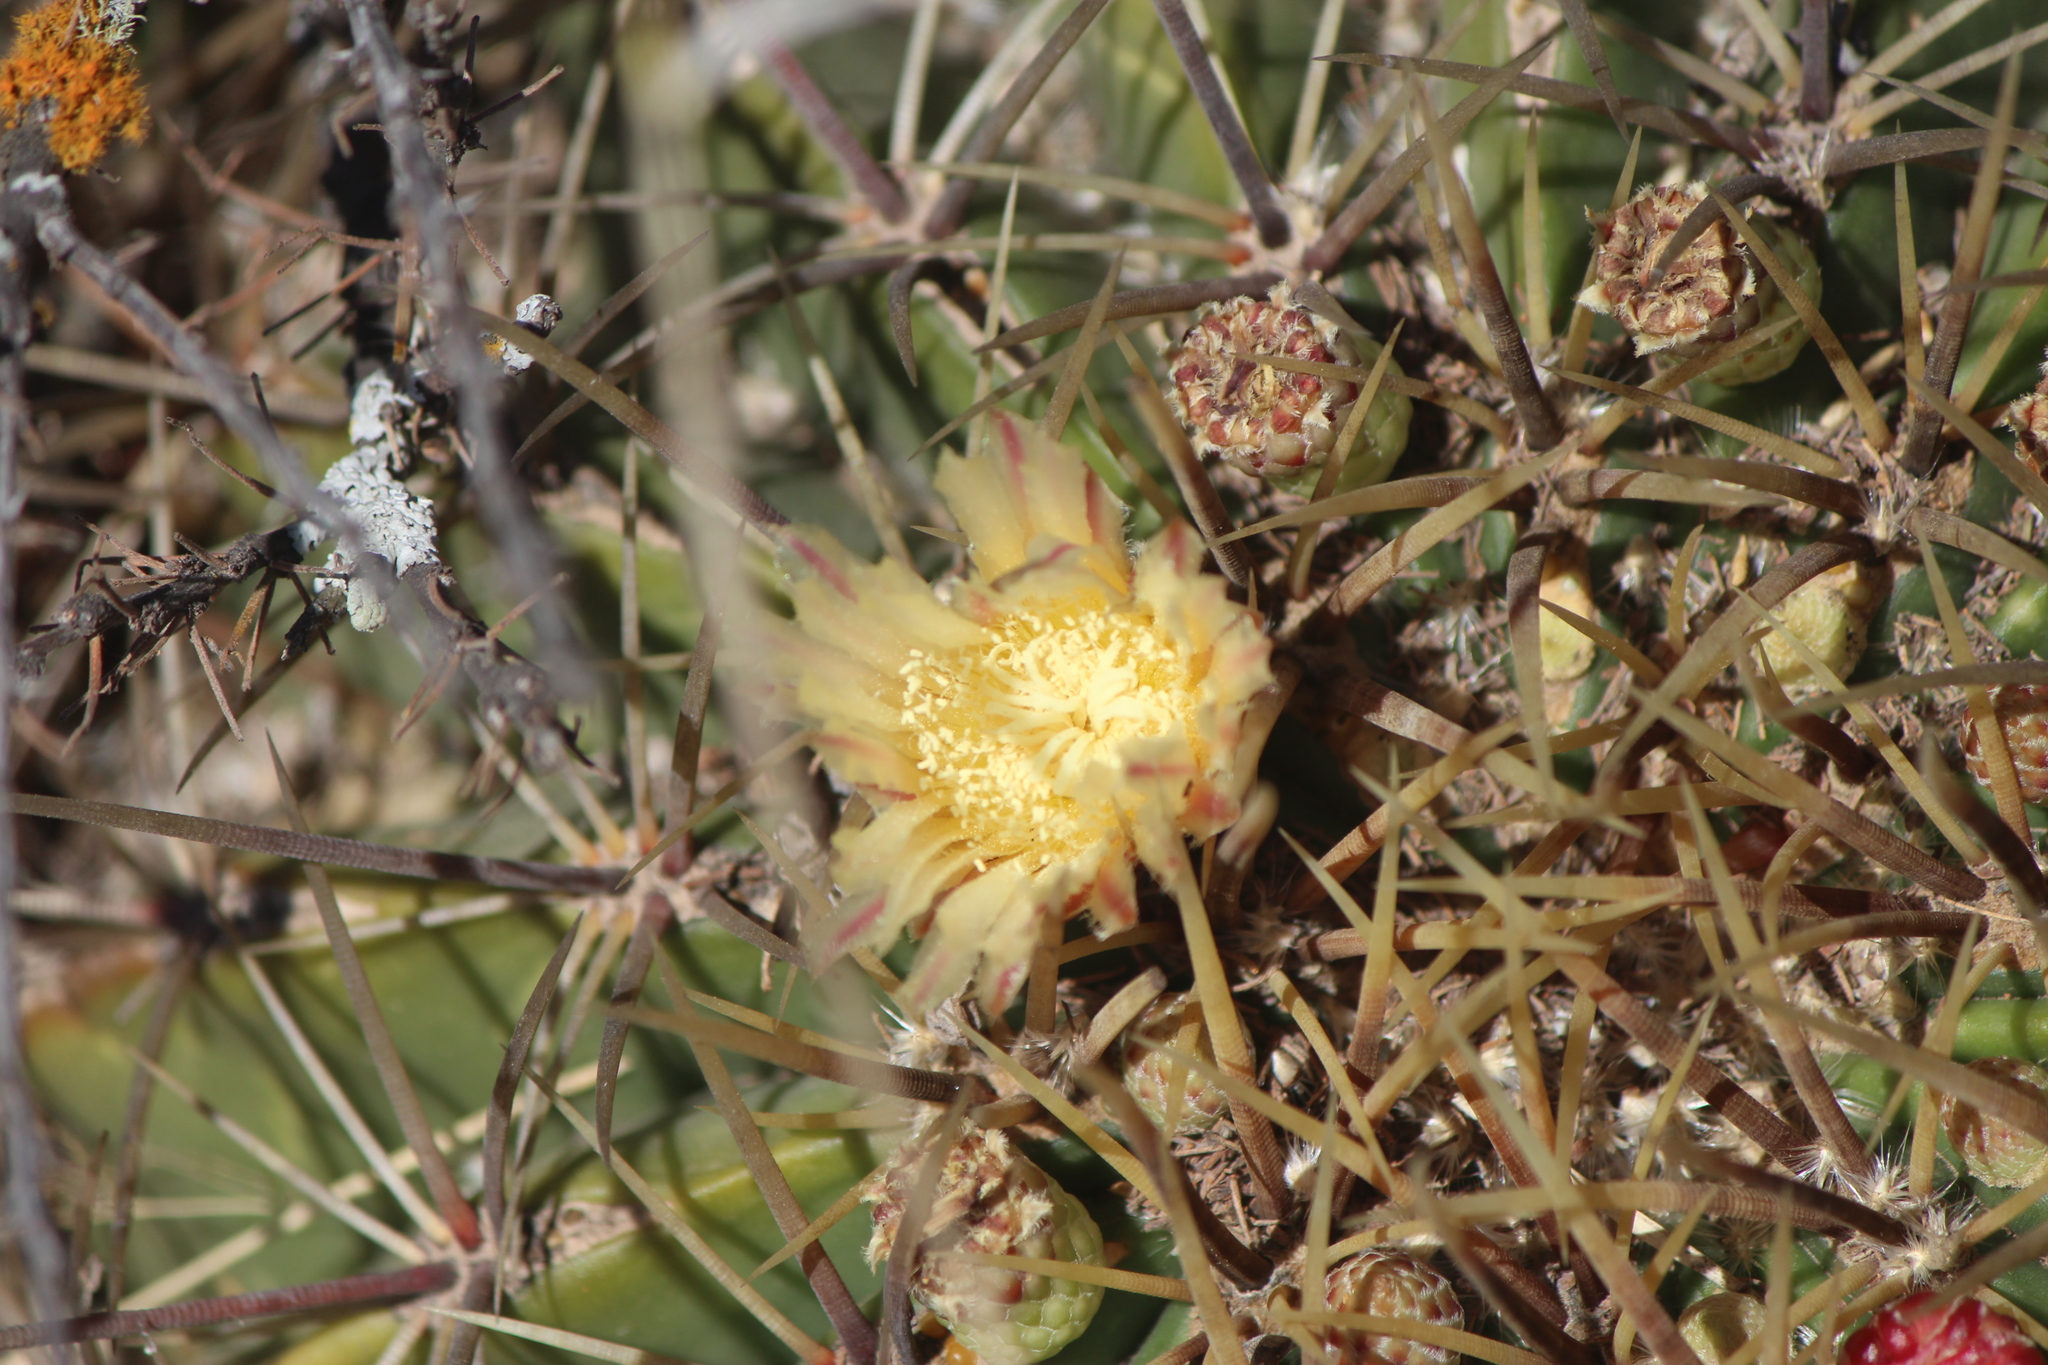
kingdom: Plantae
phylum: Tracheophyta
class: Magnoliopsida
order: Caryophyllales
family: Cactaceae
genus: Bisnaga
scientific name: Bisnaga histrix
